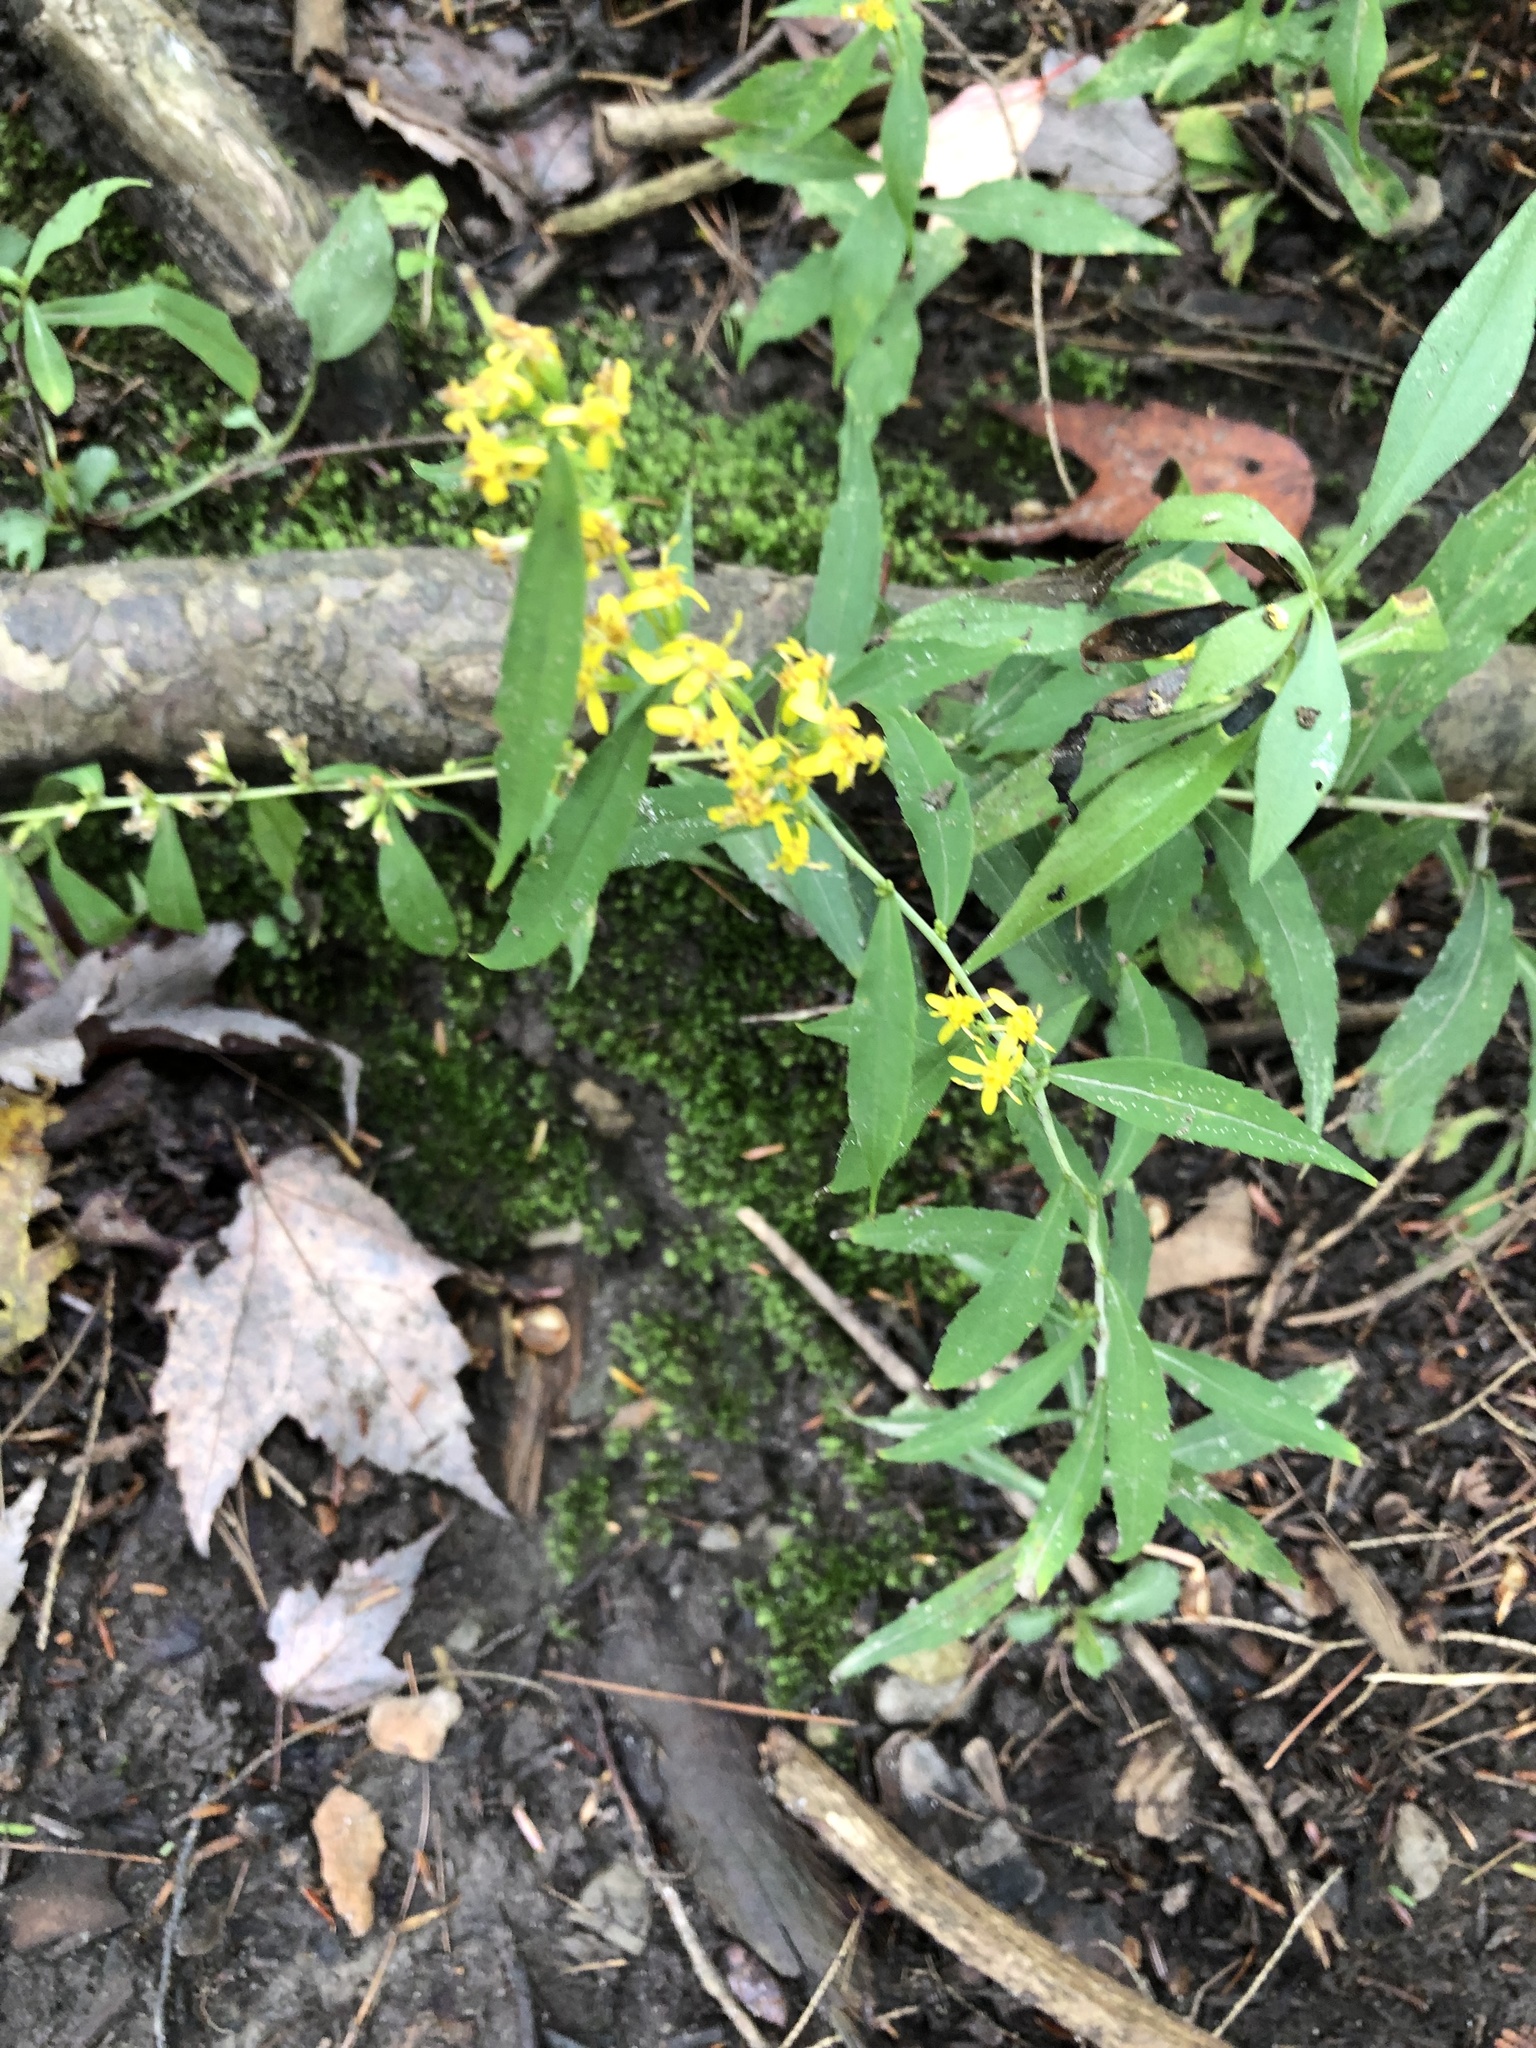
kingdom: Plantae
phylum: Tracheophyta
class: Magnoliopsida
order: Asterales
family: Asteraceae
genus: Solidago
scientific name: Solidago caesia
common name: Woodland goldenrod
